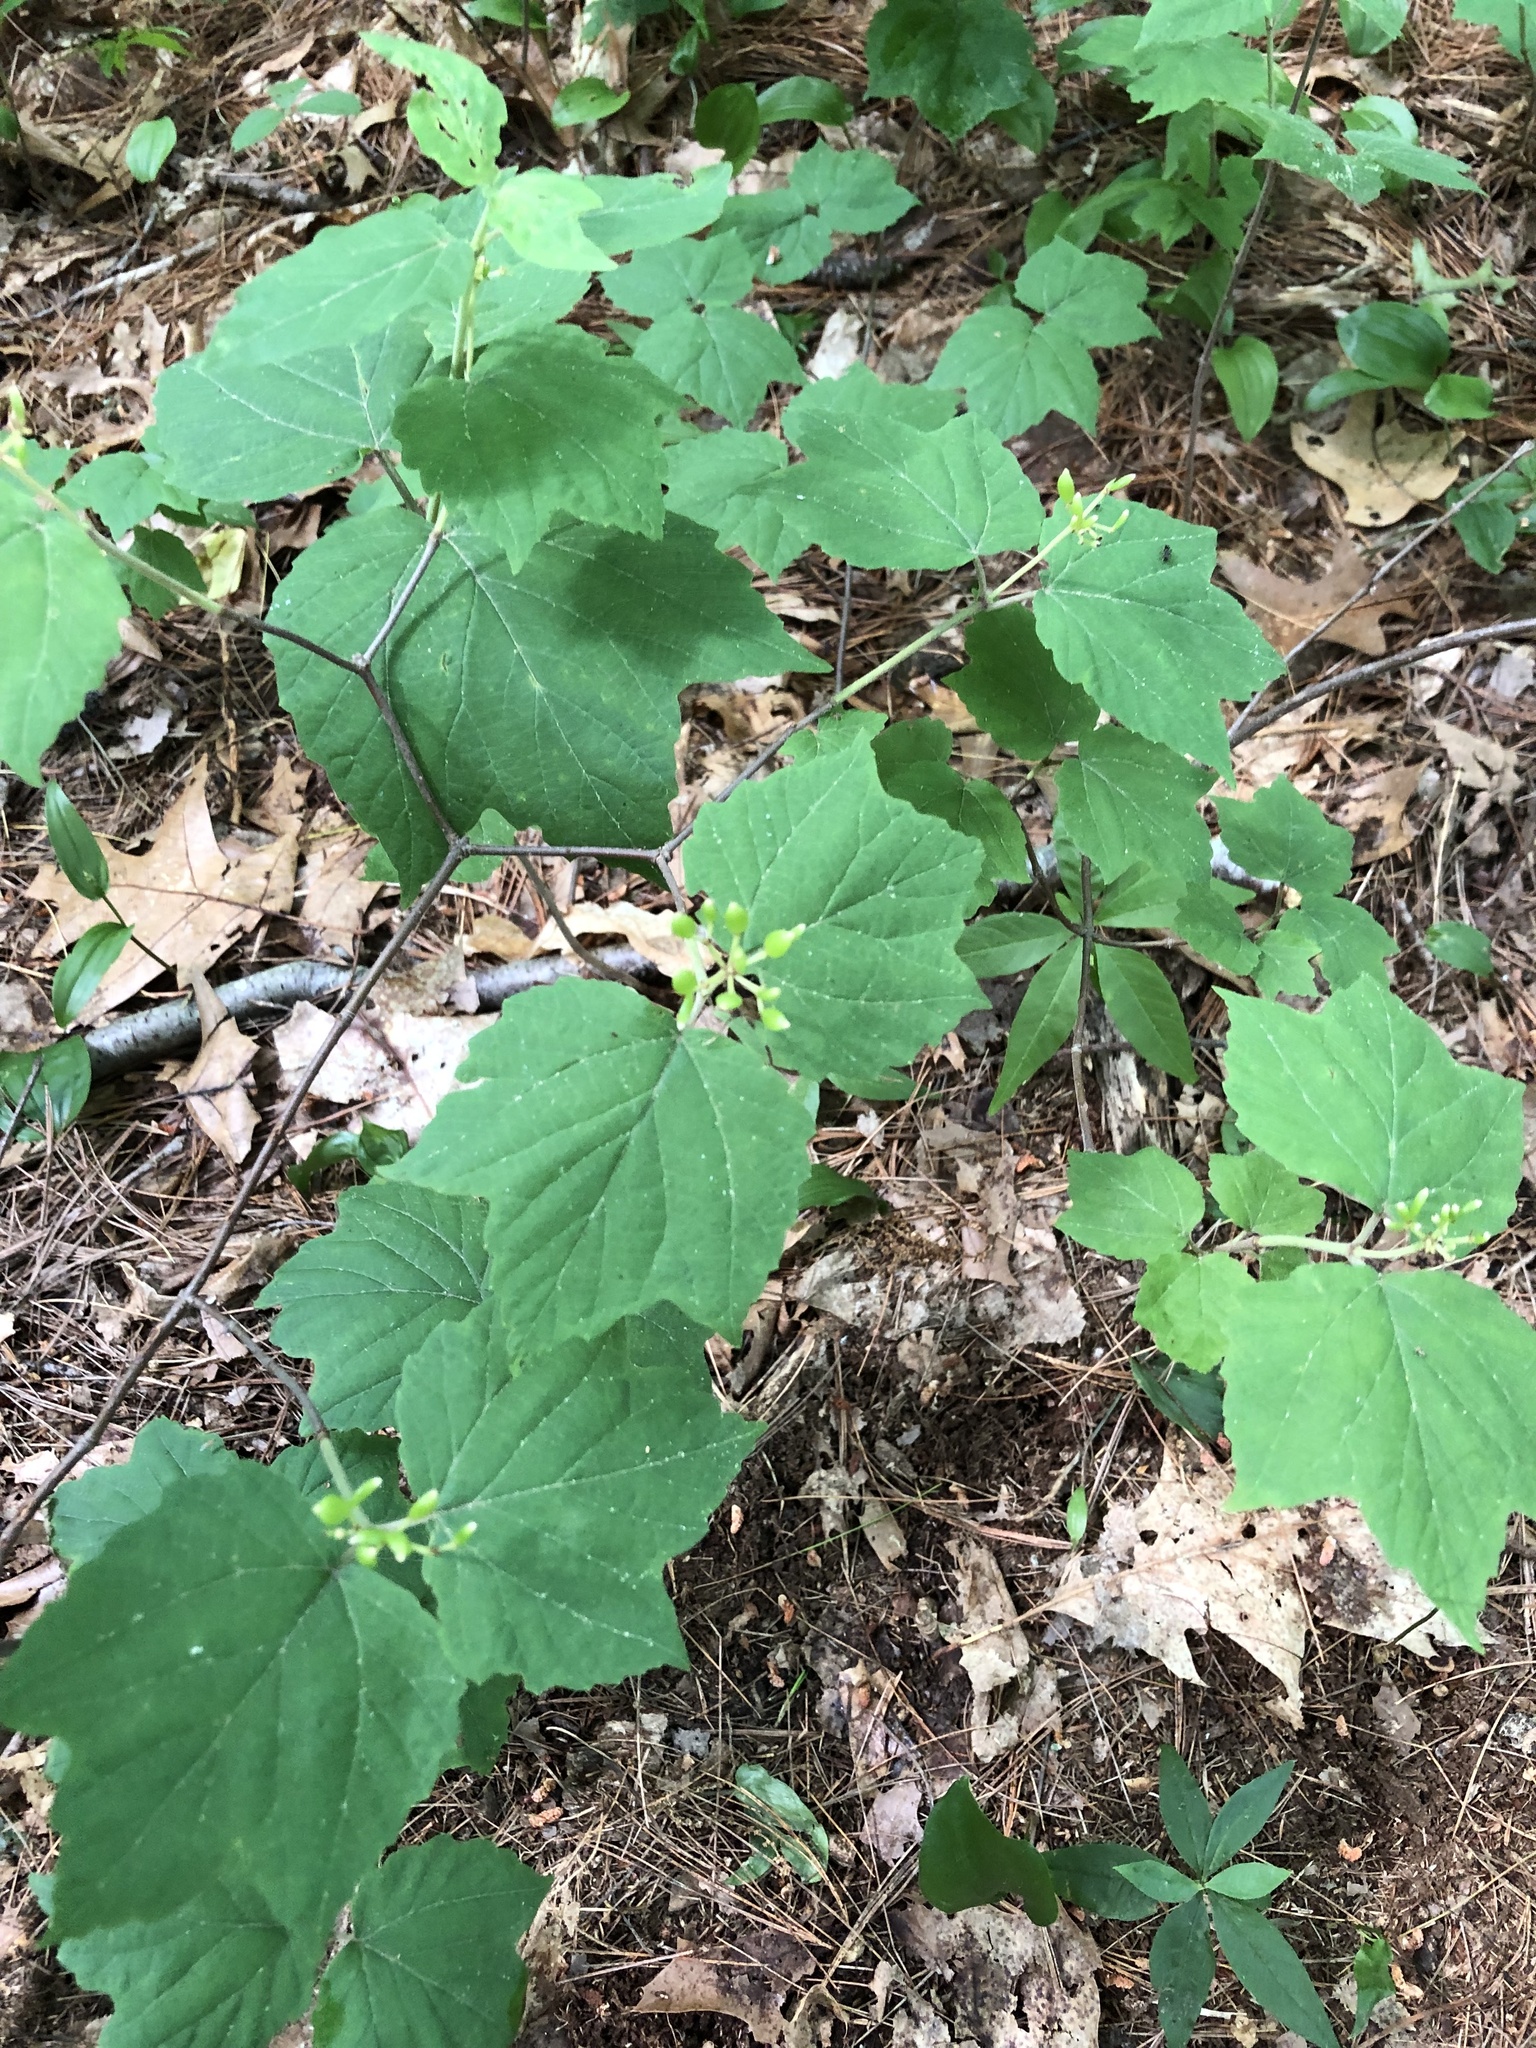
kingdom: Plantae
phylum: Tracheophyta
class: Magnoliopsida
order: Dipsacales
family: Viburnaceae
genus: Viburnum
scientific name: Viburnum acerifolium
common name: Dockmackie
